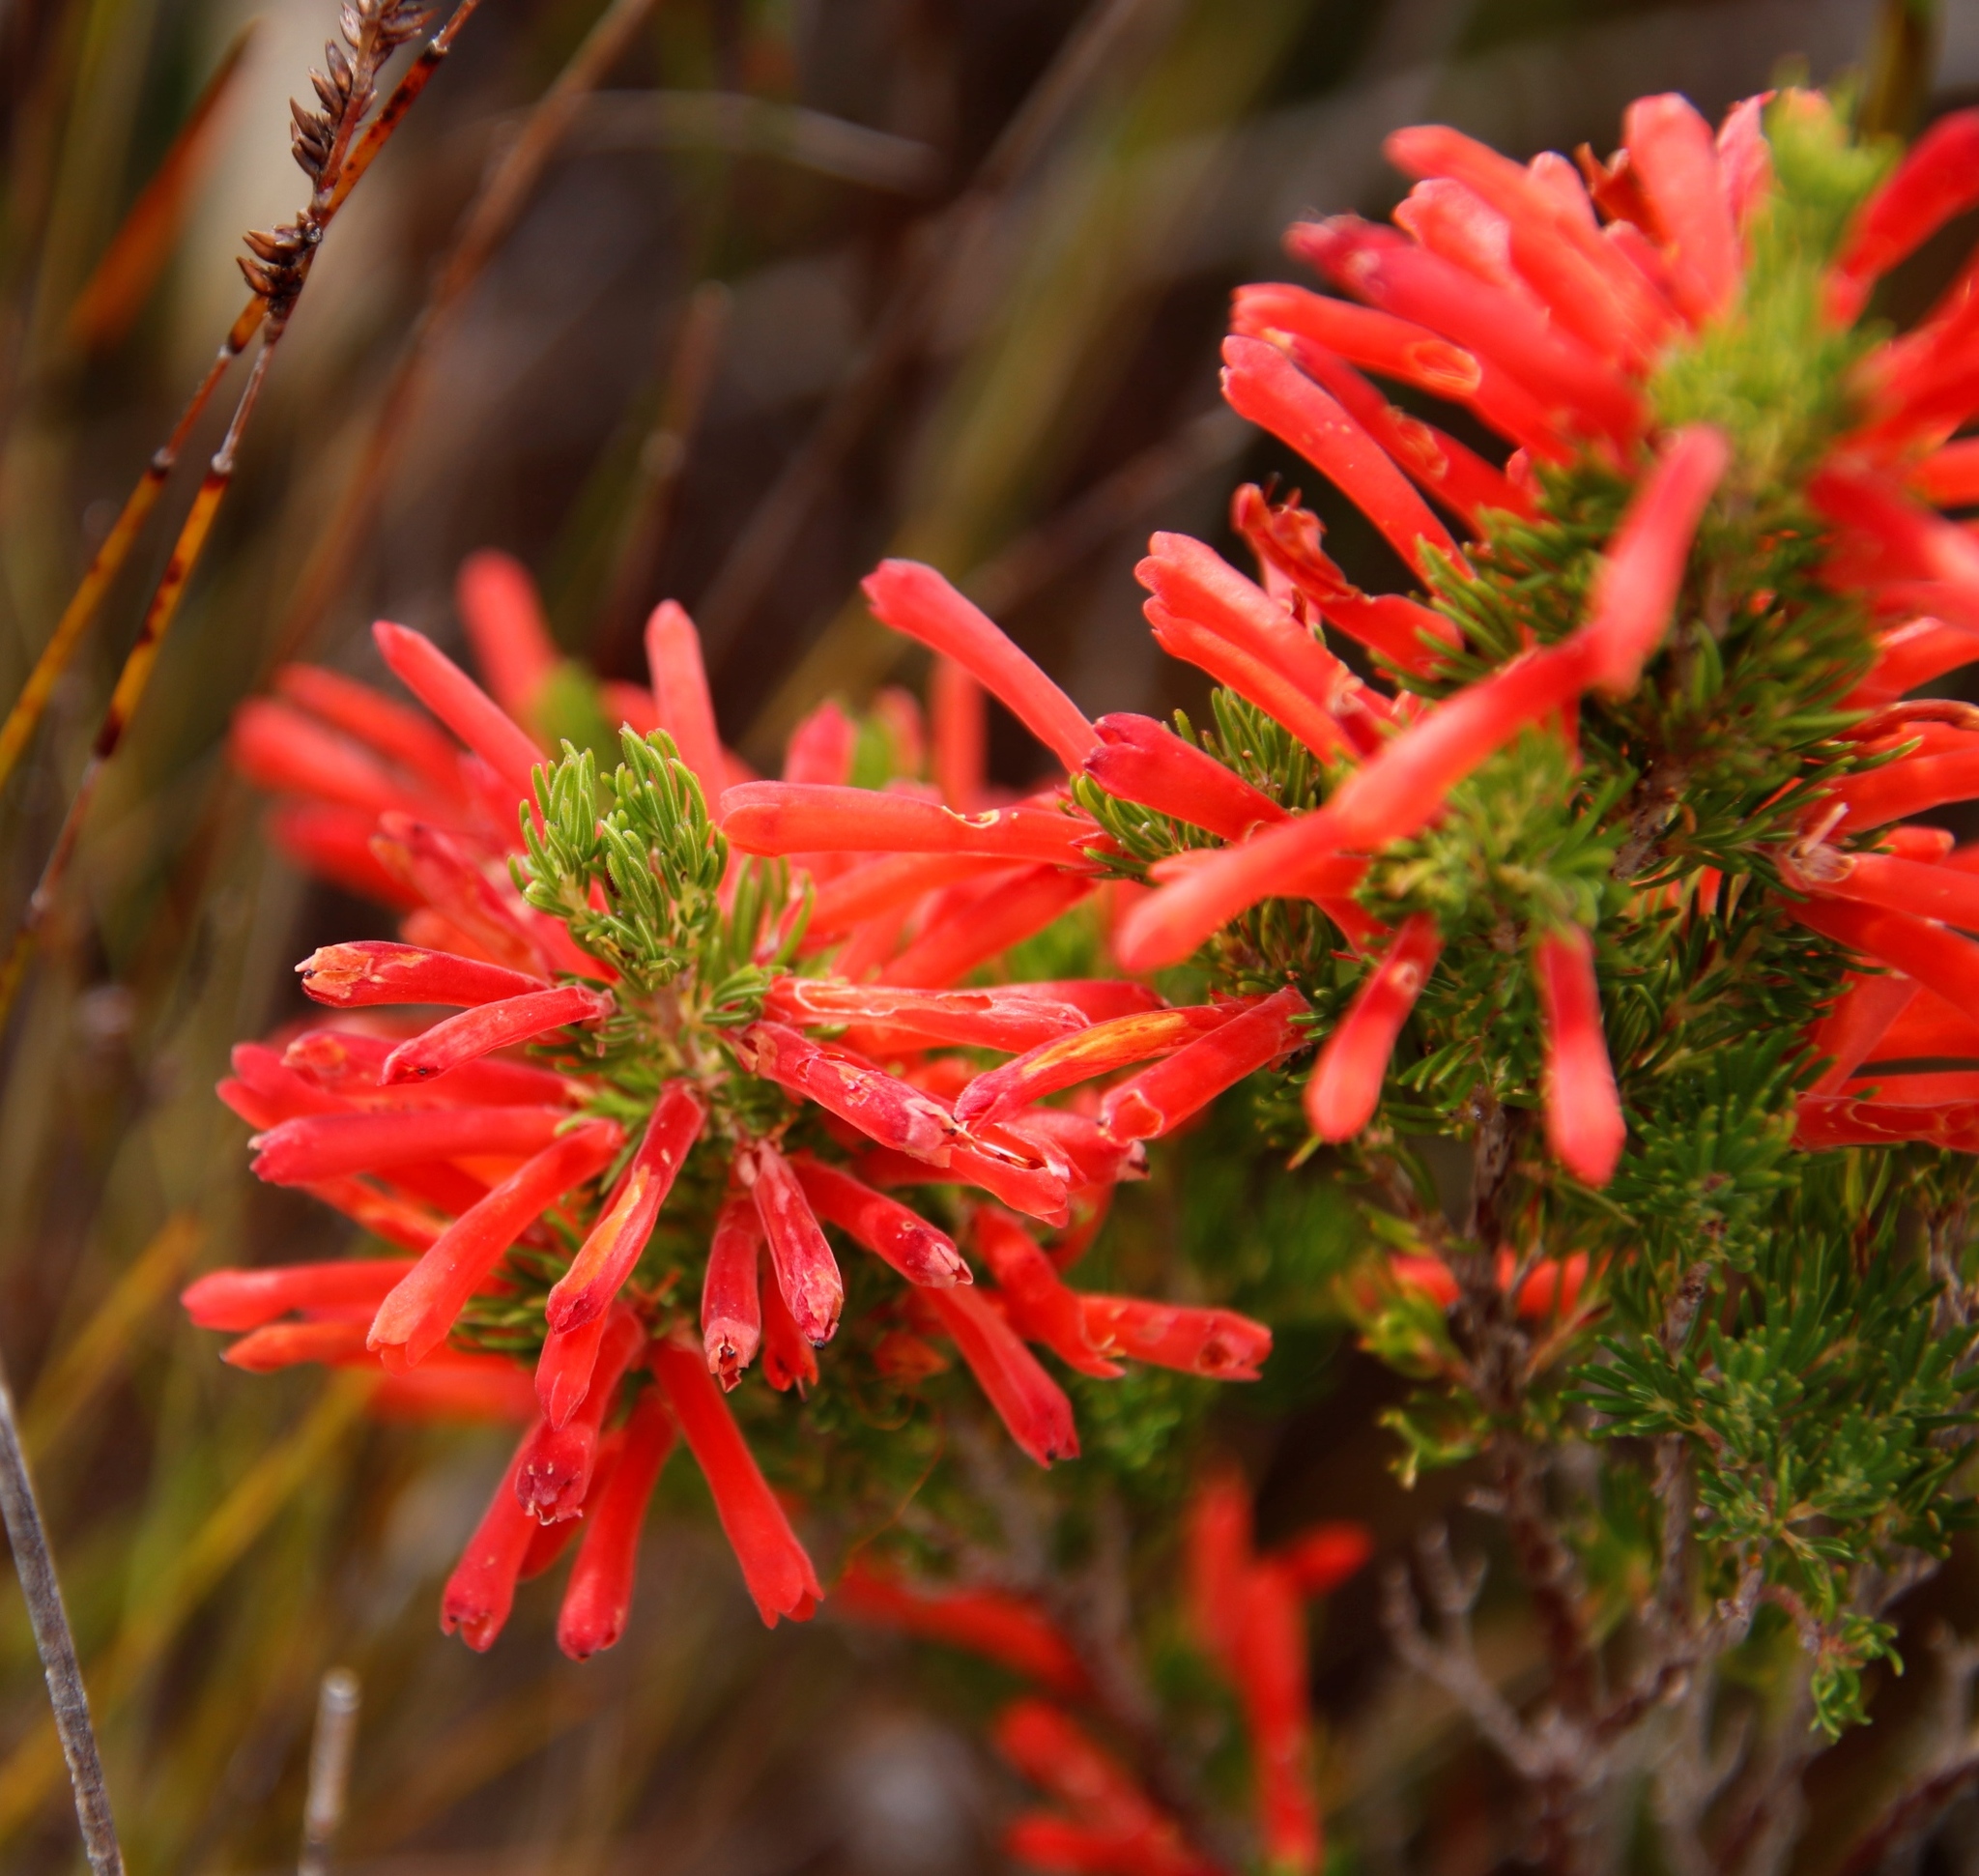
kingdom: Plantae
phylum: Tracheophyta
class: Magnoliopsida
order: Ericales
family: Ericaceae
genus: Erica
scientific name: Erica pillansii
